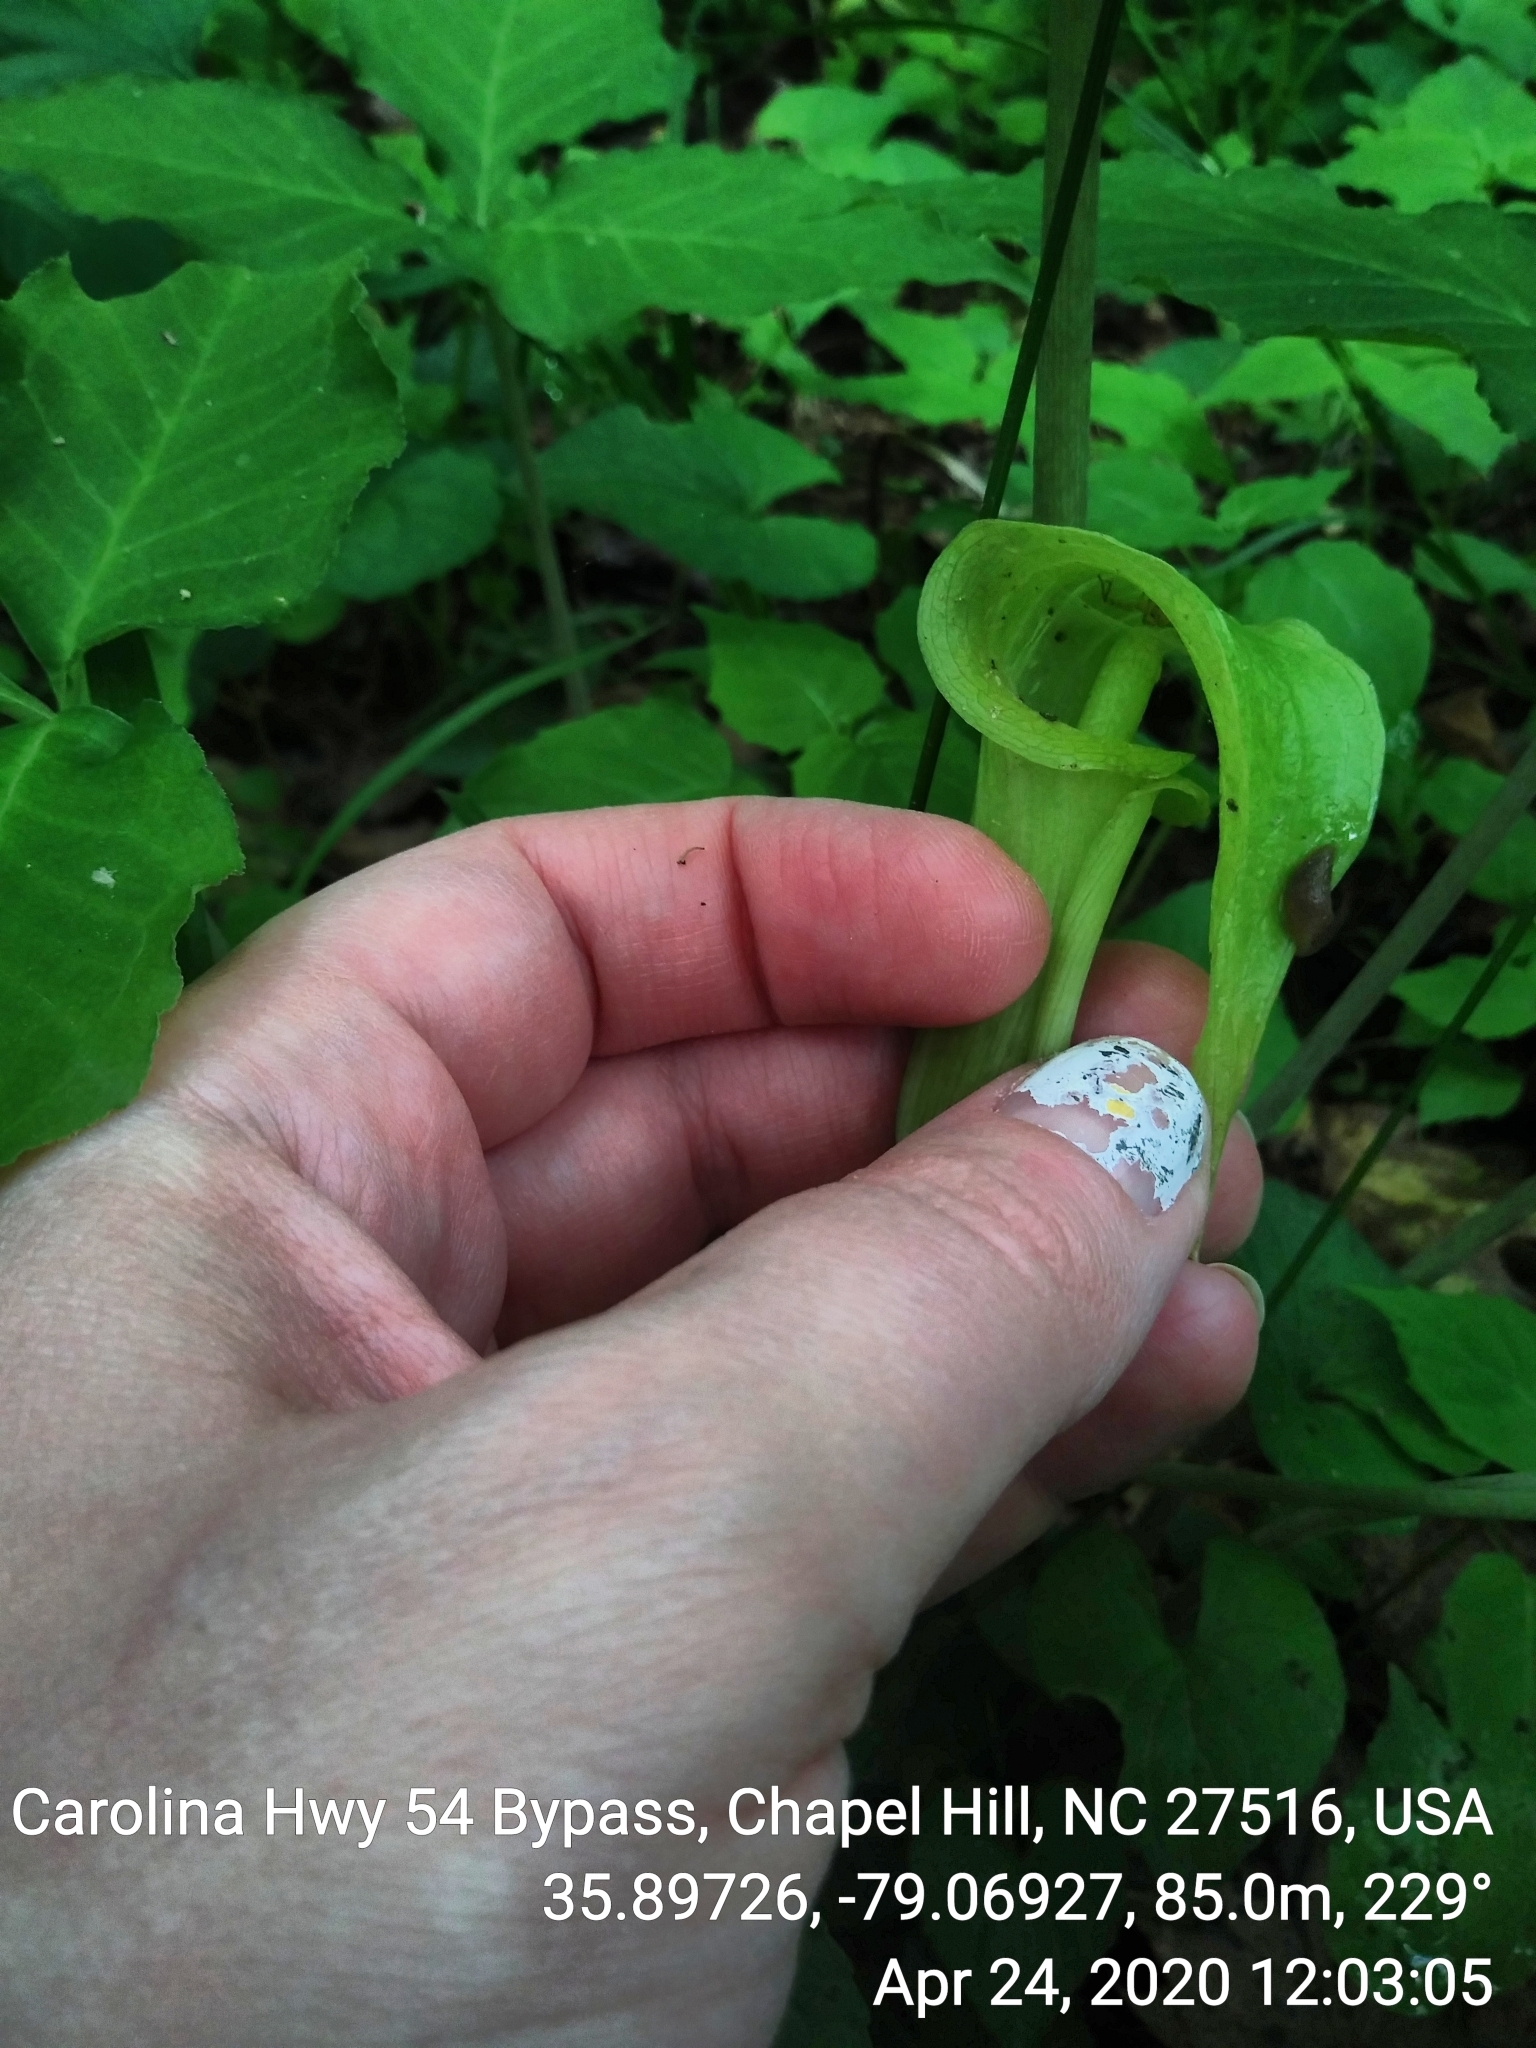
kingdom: Plantae
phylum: Tracheophyta
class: Liliopsida
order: Alismatales
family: Araceae
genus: Arisaema
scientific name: Arisaema triphyllum
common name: Jack-in-the-pulpit
